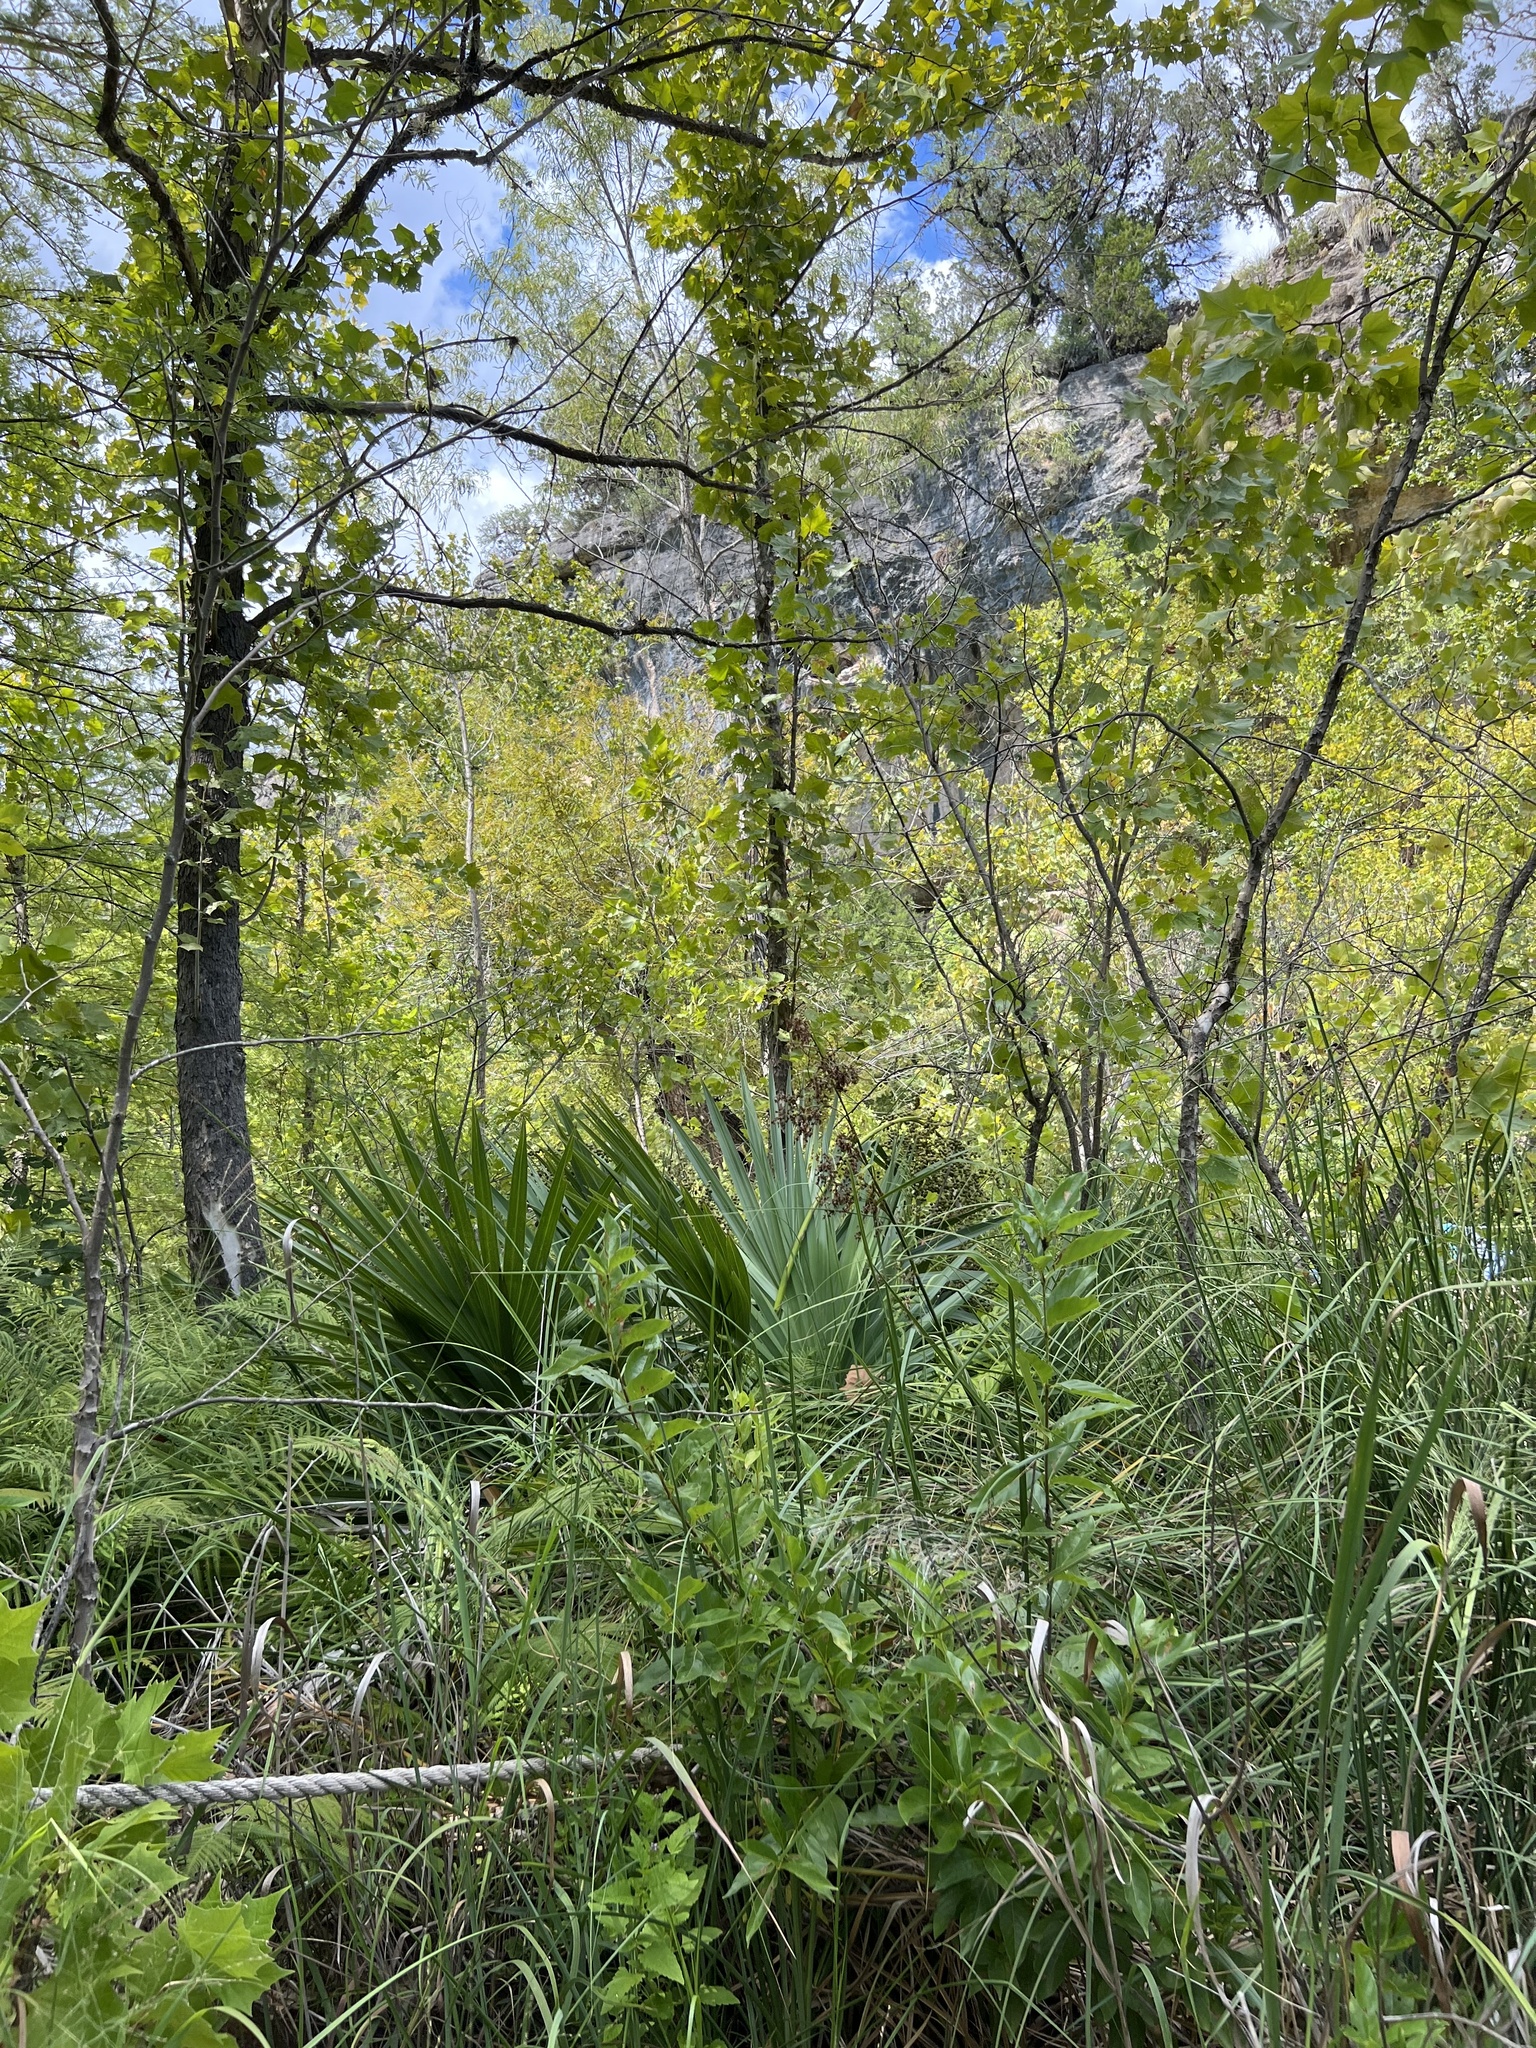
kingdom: Plantae
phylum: Tracheophyta
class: Liliopsida
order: Arecales
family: Arecaceae
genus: Sabal
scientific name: Sabal minor
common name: Dwarf palmetto
